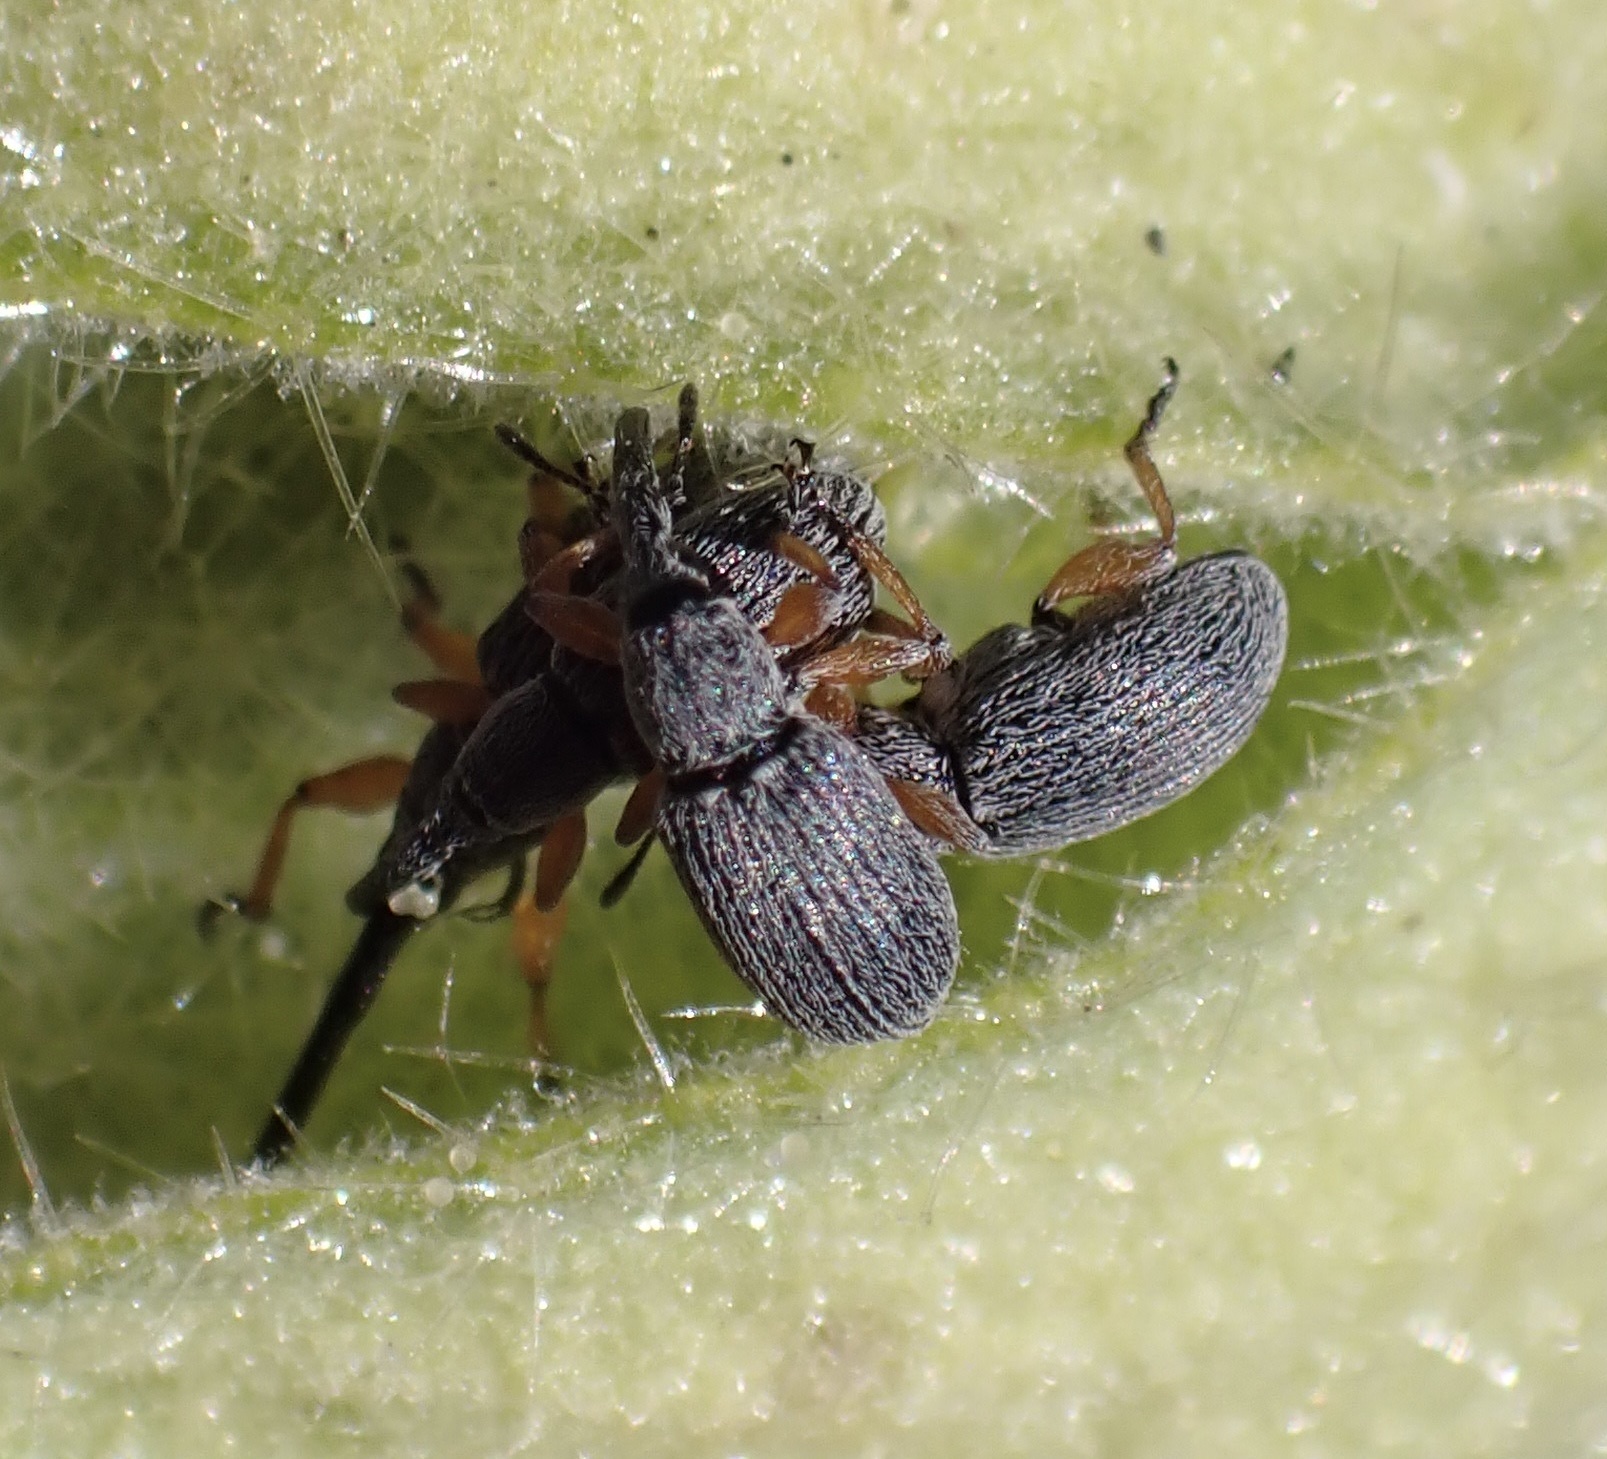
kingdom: Animalia
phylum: Arthropoda
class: Insecta
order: Coleoptera
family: Brentidae
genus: Rhopalapion
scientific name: Rhopalapion longirostre
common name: Hollyhock weevil
